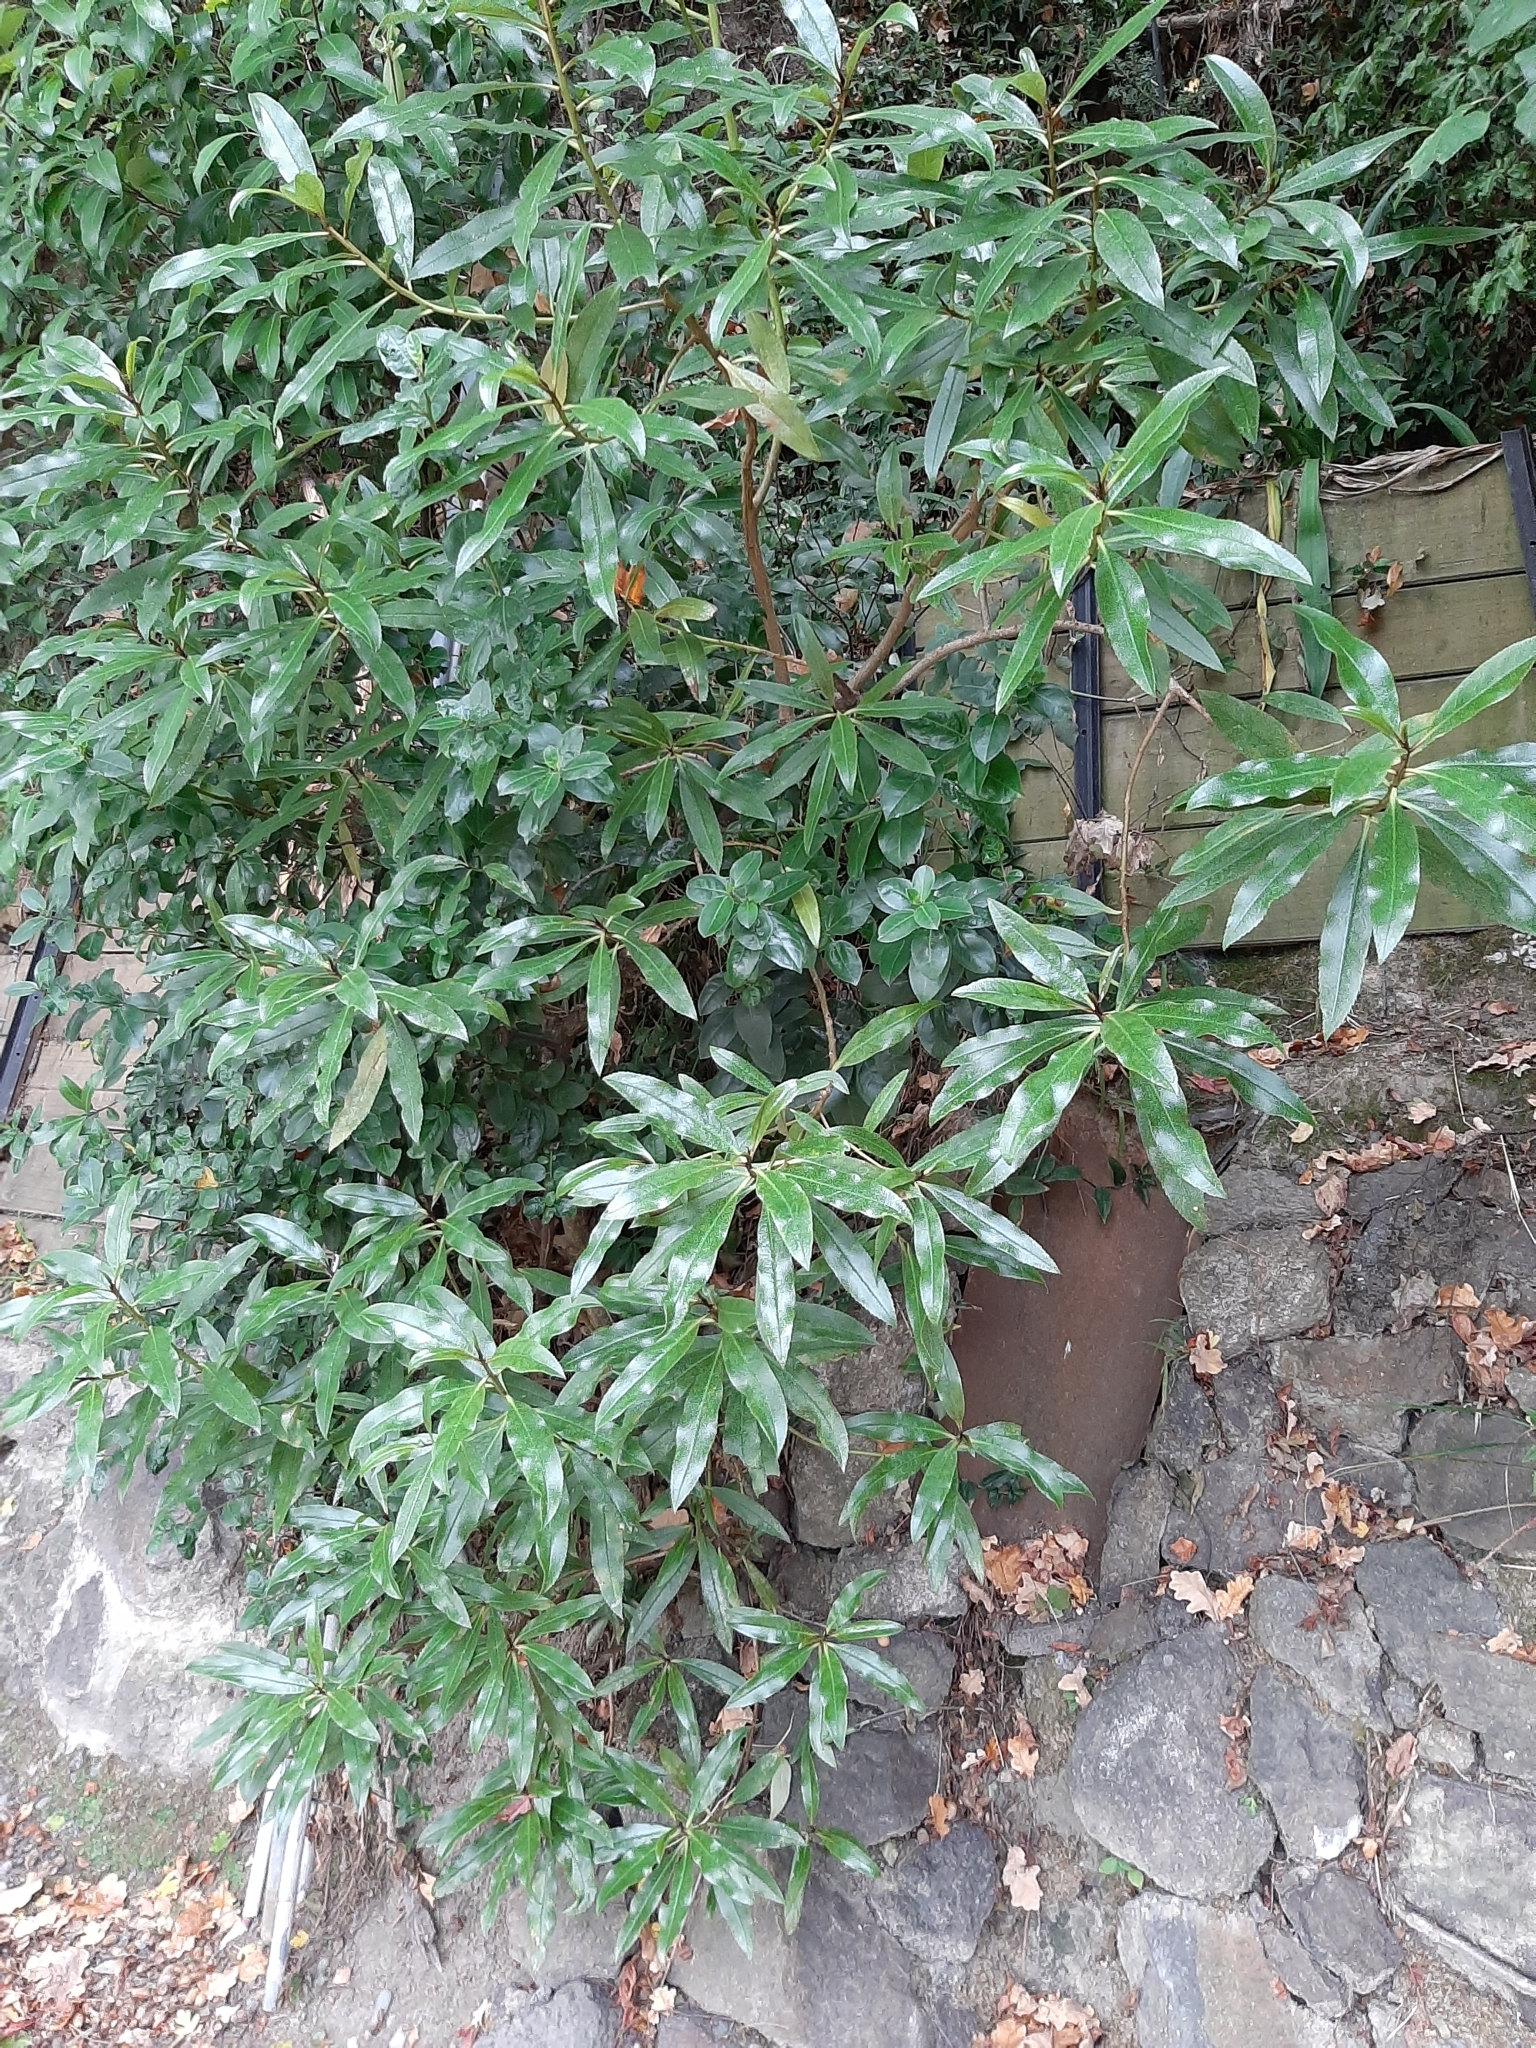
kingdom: Plantae
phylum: Tracheophyta
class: Magnoliopsida
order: Lamiales
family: Scrophulariaceae
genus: Myoporum
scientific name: Myoporum laetum
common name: Ngaio tree
